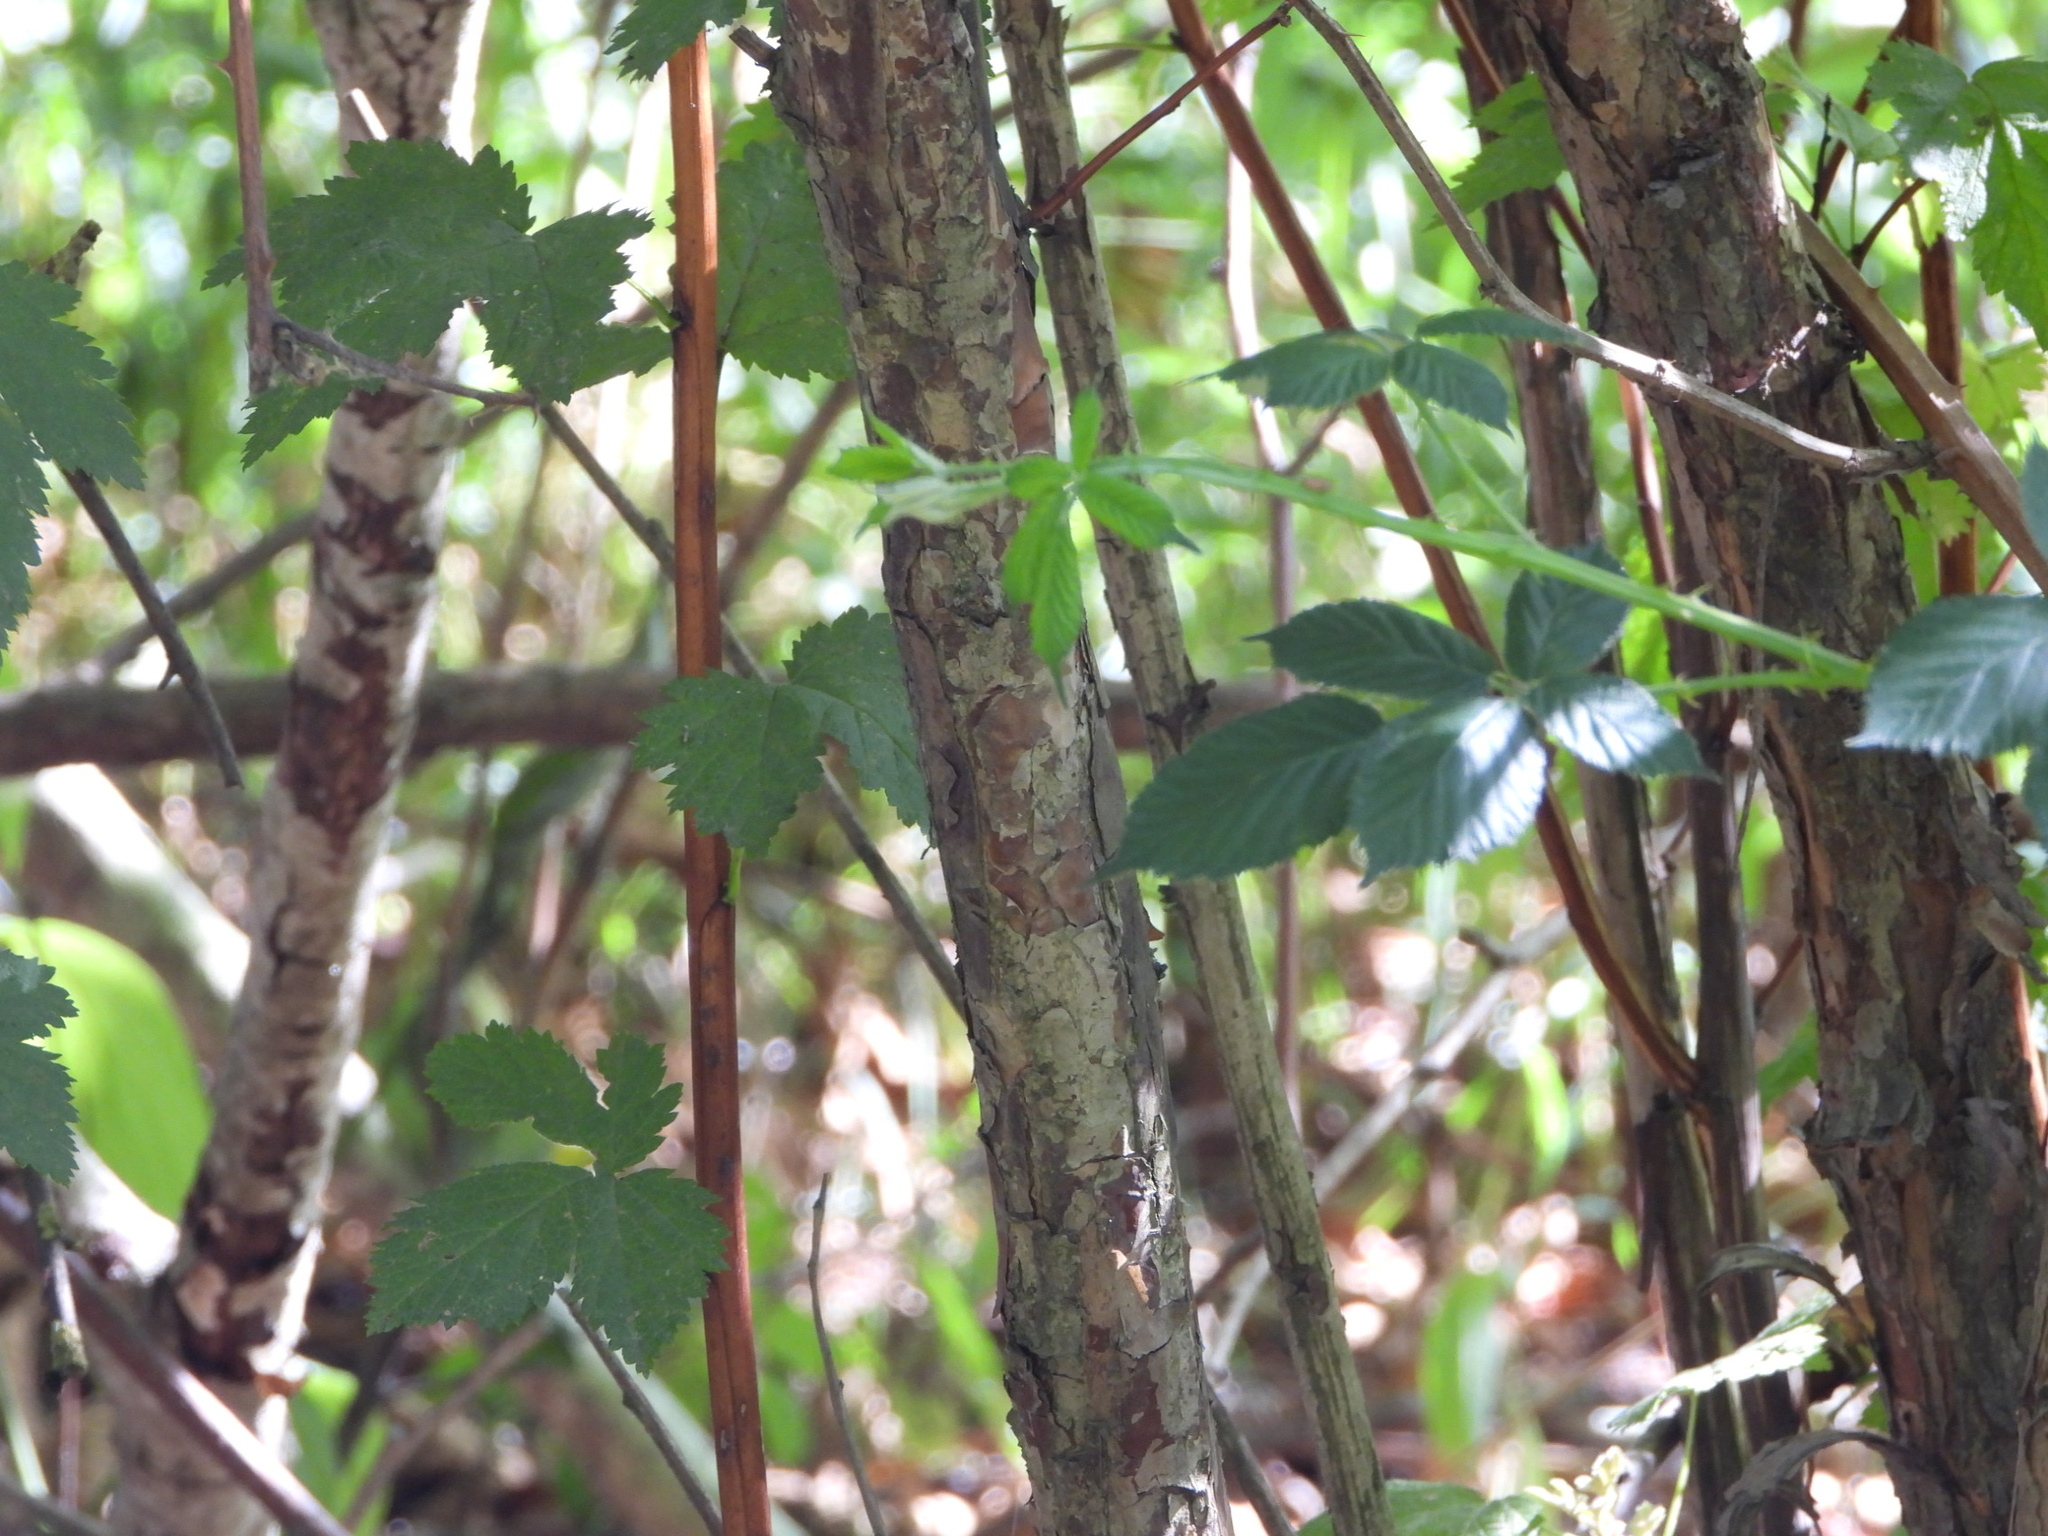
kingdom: Plantae
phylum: Tracheophyta
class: Magnoliopsida
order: Rosales
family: Rosaceae
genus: Physocarpus
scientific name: Physocarpus capitatus
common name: Pacific ninebark
